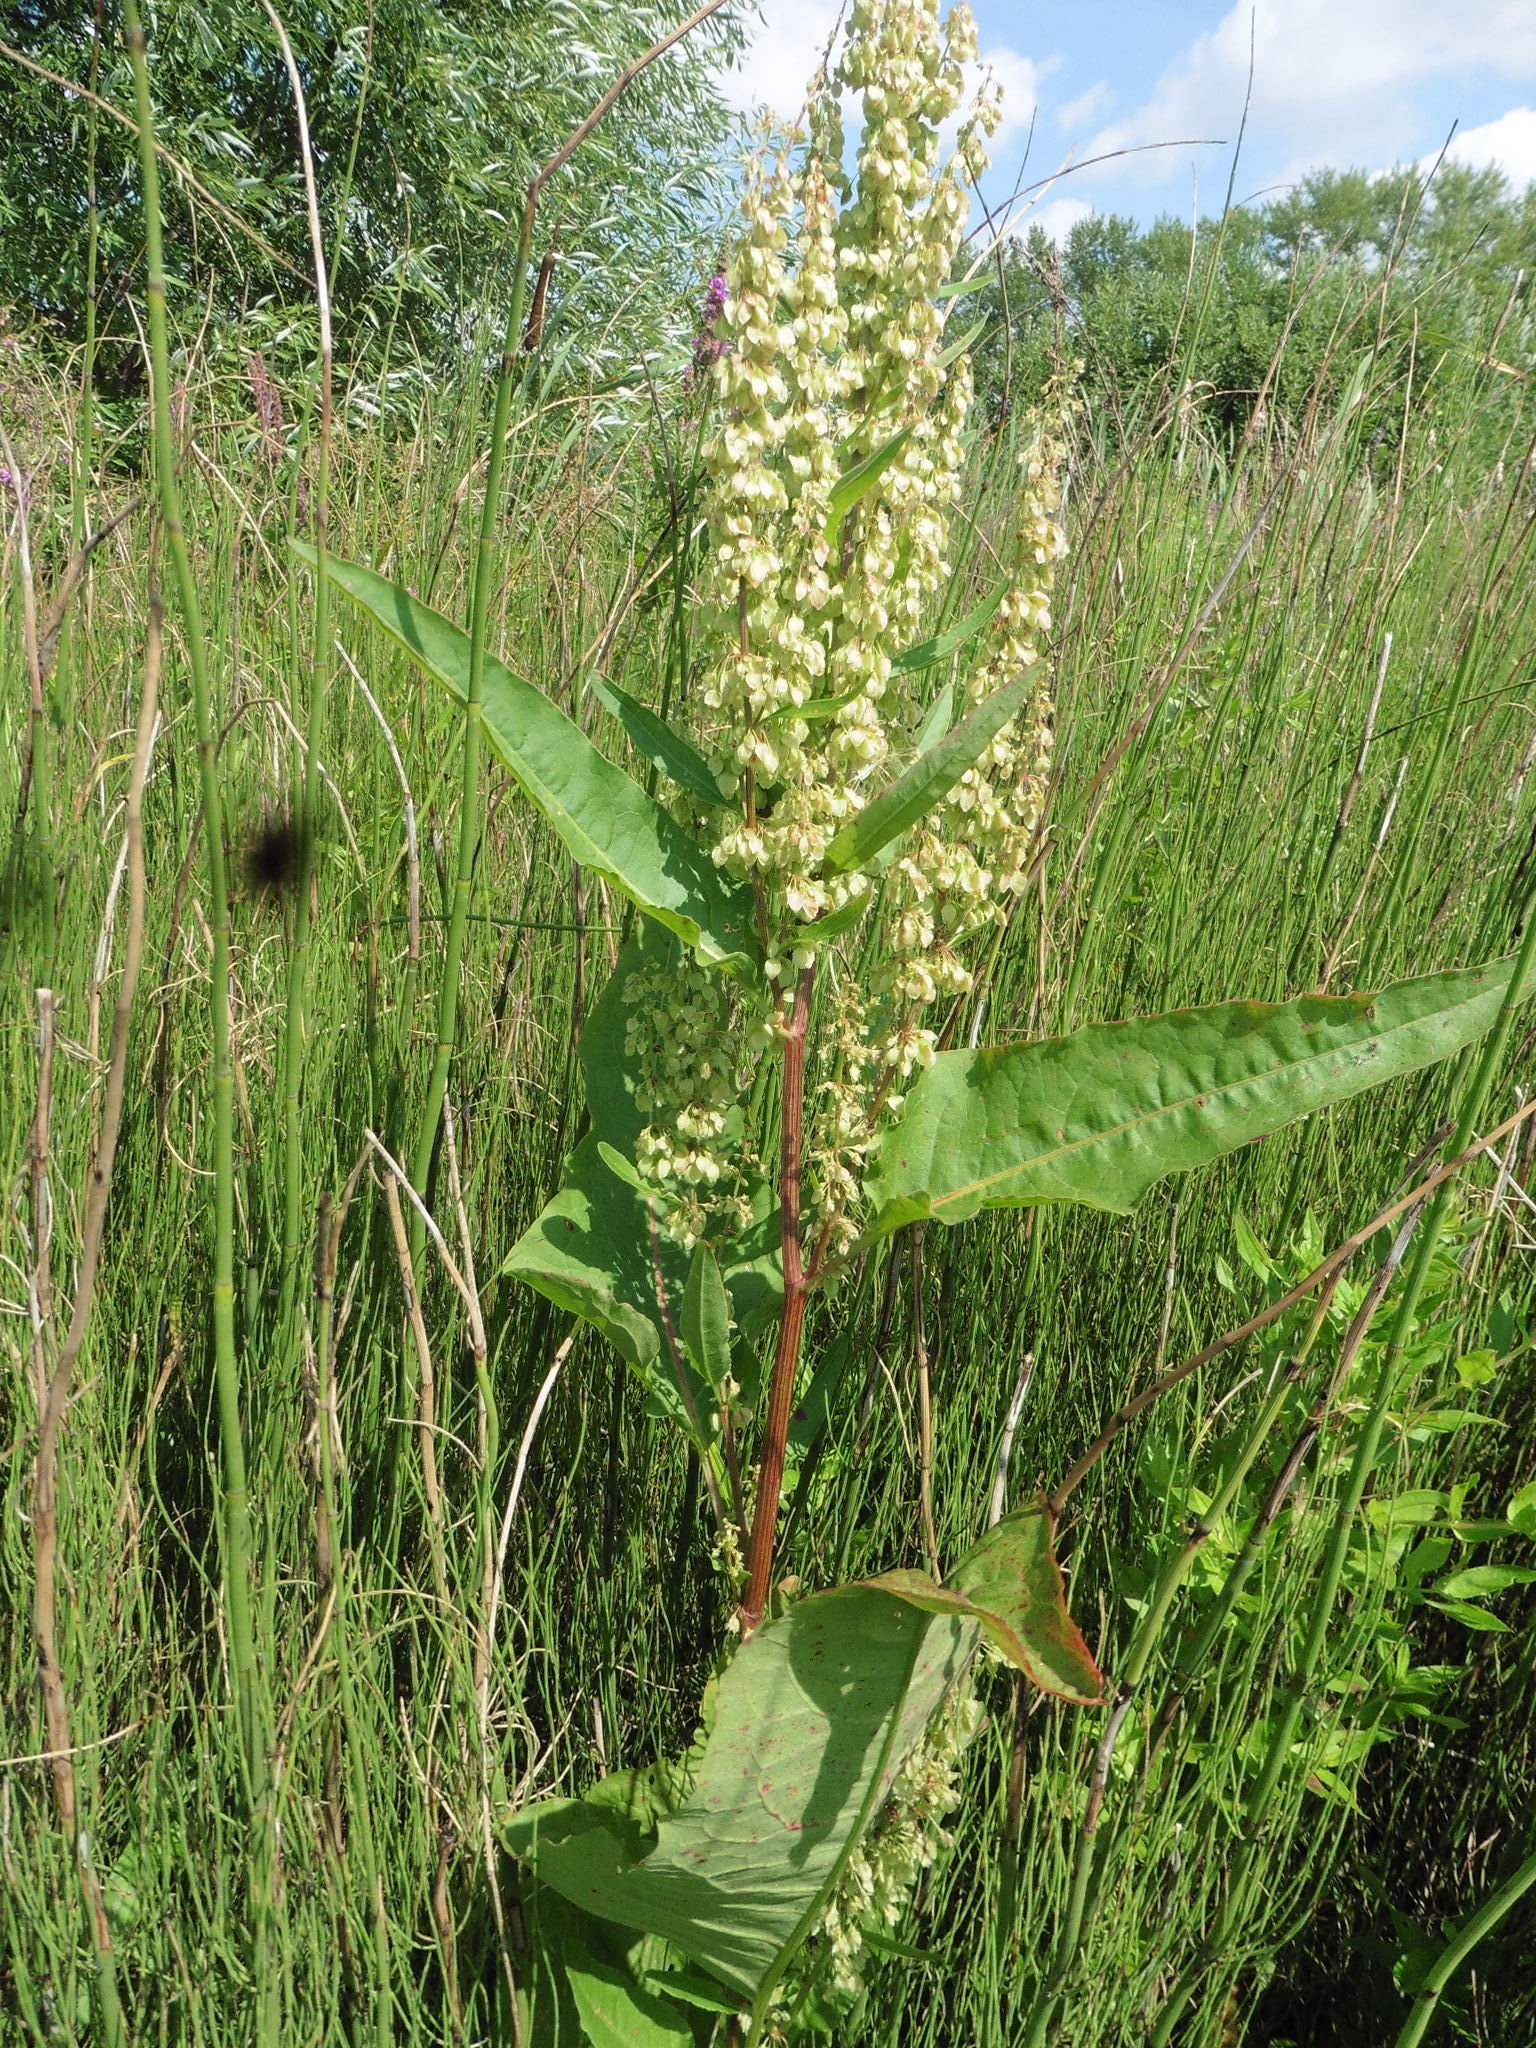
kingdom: Plantae
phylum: Tracheophyta
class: Magnoliopsida
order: Caryophyllales
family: Polygonaceae
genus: Rumex
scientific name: Rumex aquaticus
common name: Scottish dock
